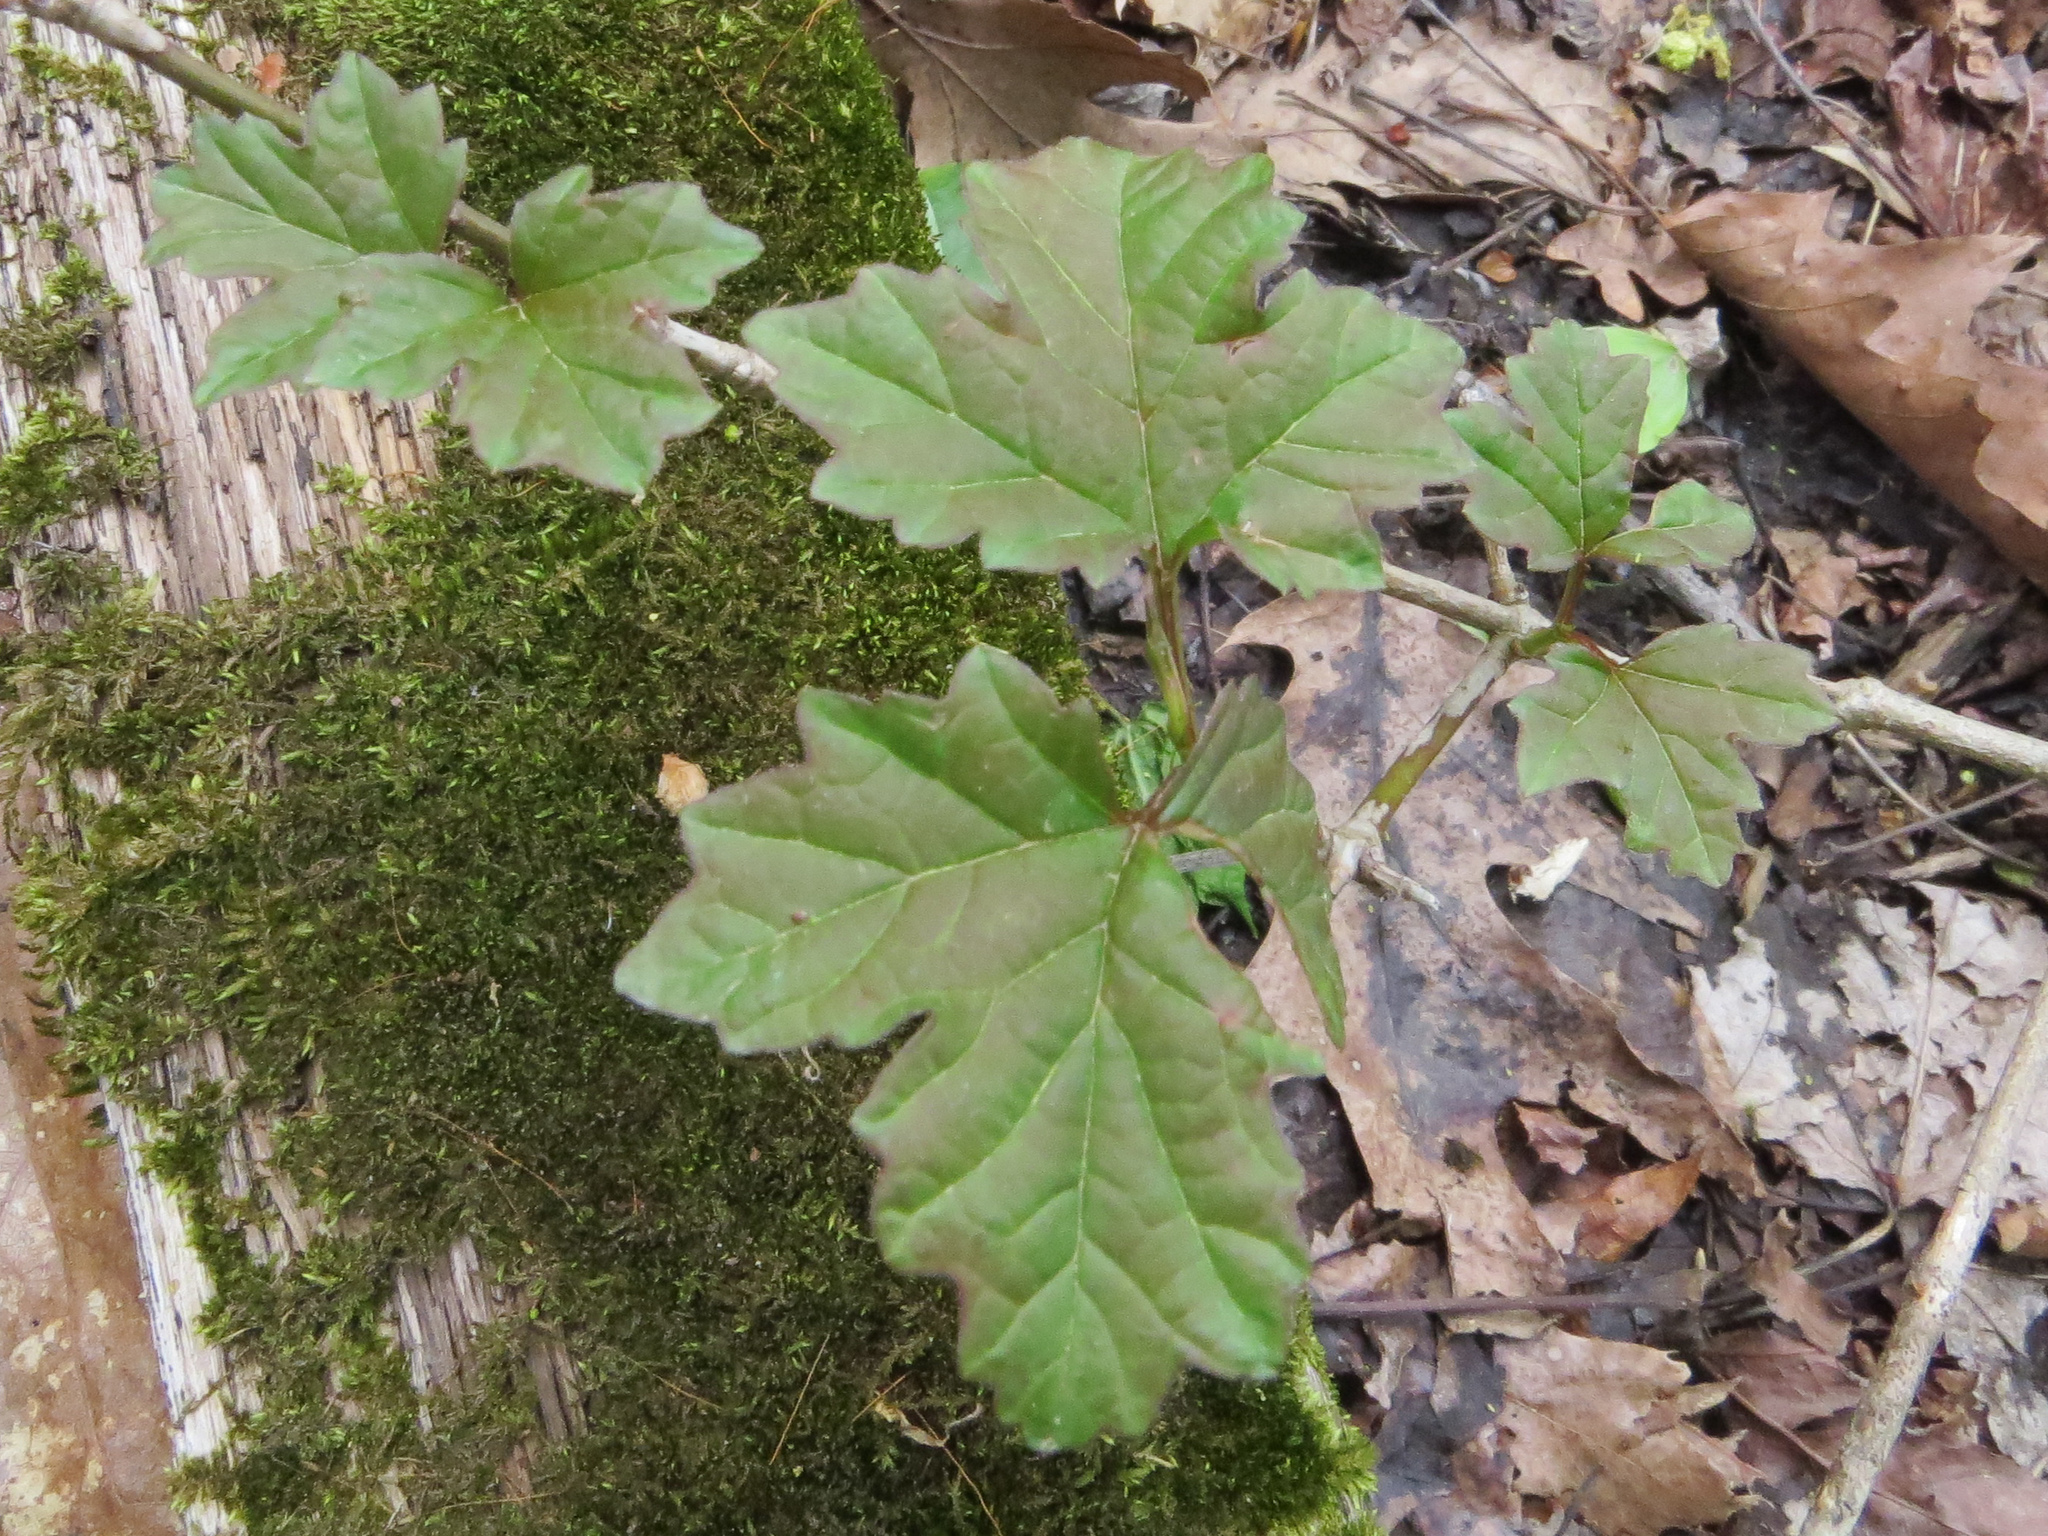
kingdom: Plantae
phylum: Tracheophyta
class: Magnoliopsida
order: Dipsacales
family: Viburnaceae
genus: Viburnum
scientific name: Viburnum opulus
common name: Guelder-rose
